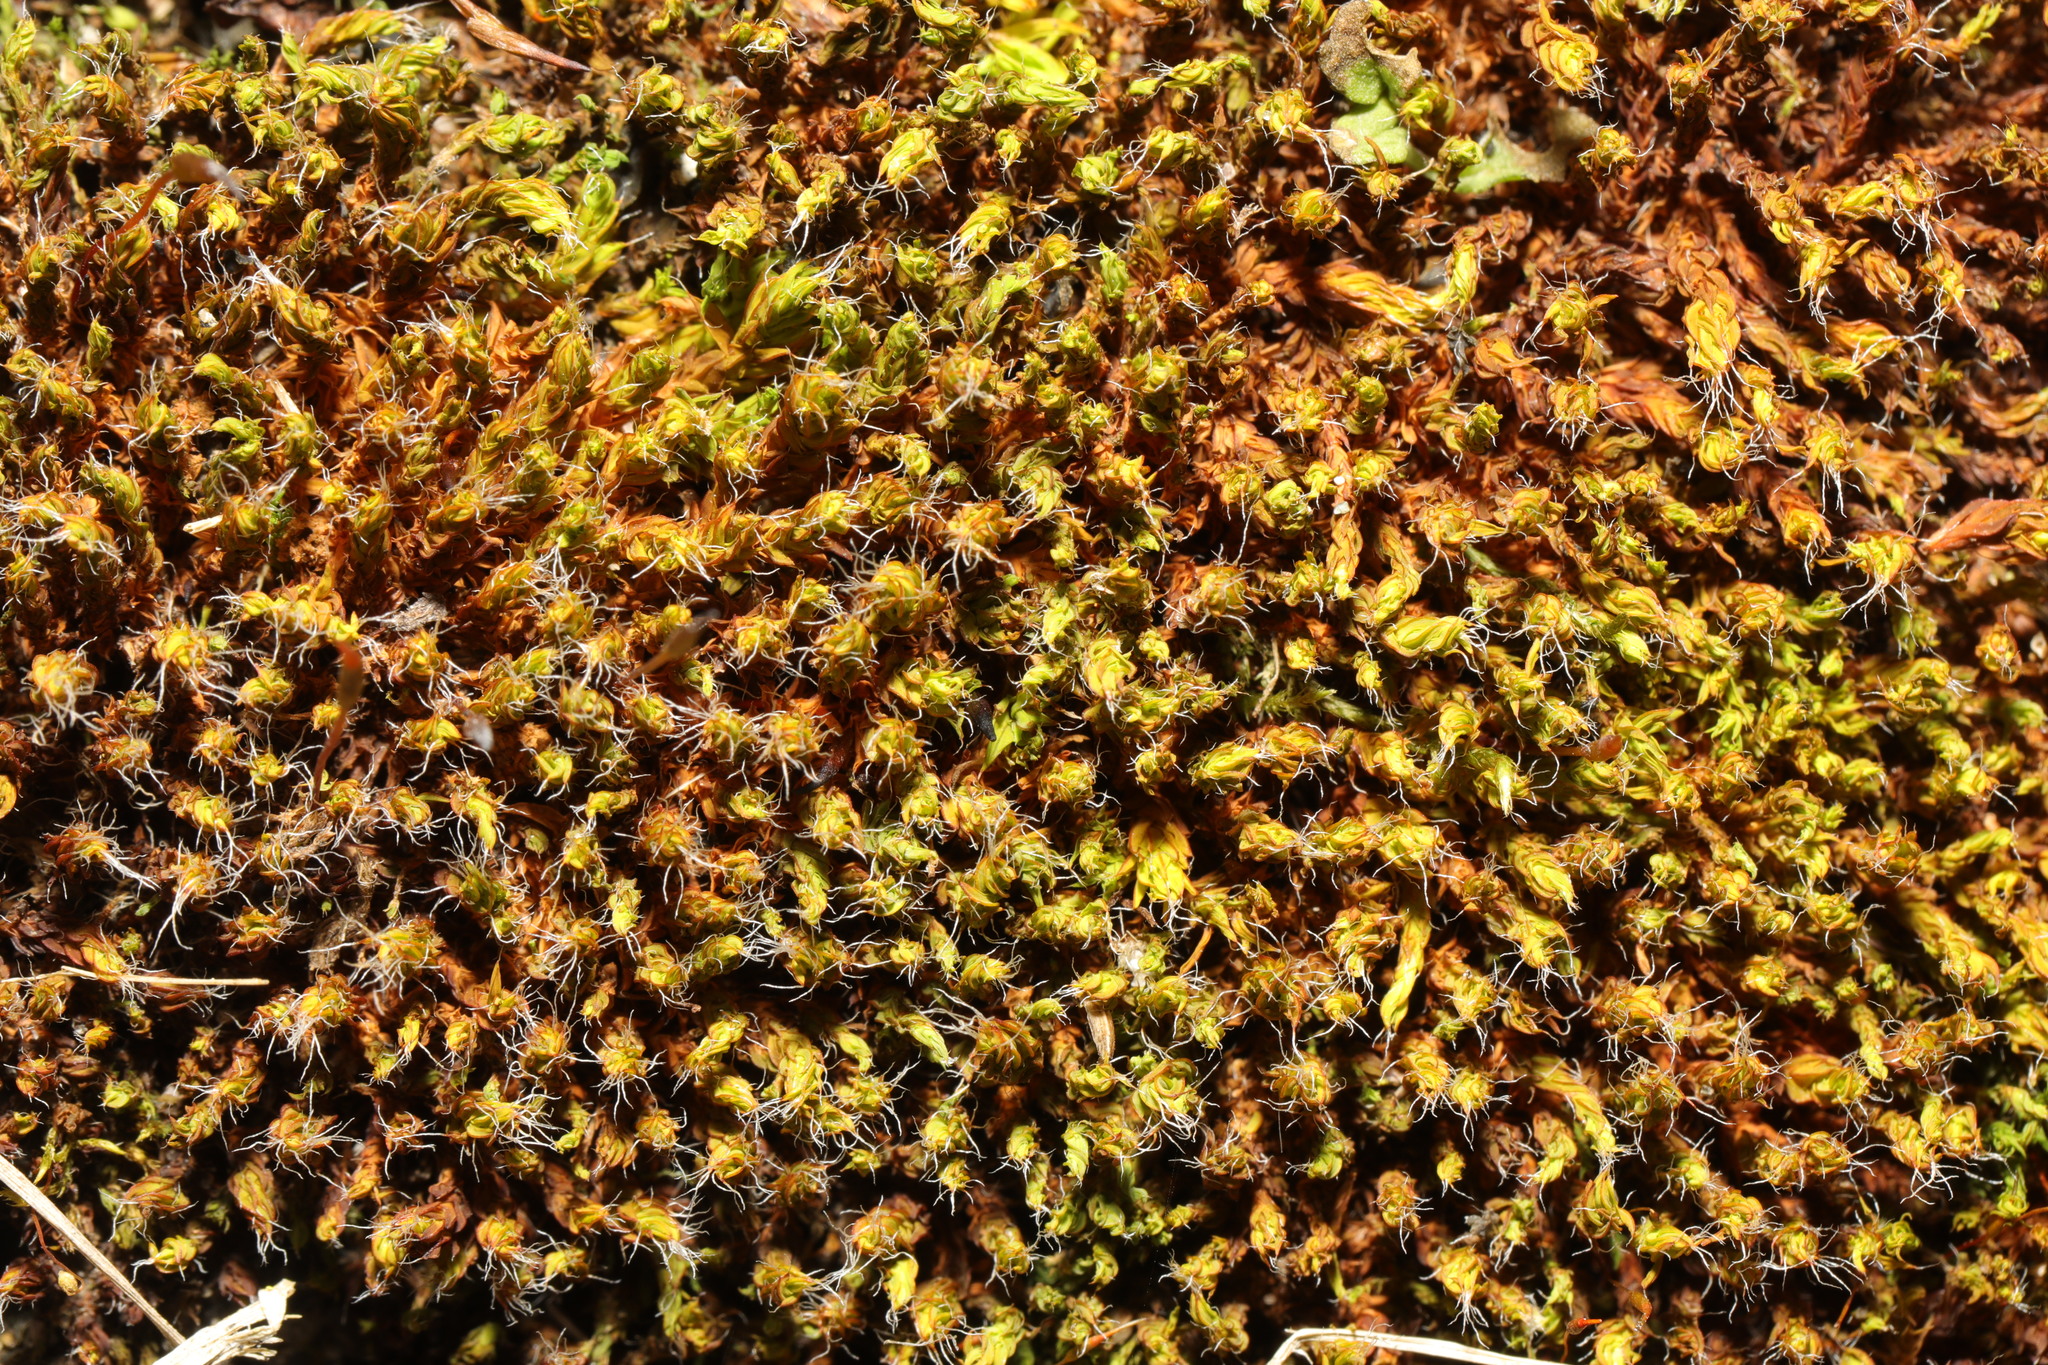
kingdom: Plantae
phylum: Bryophyta
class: Bryopsida
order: Pottiales
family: Pottiaceae
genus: Syntrichia
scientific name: Syntrichia ruralis
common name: Sidewalk screw moss
